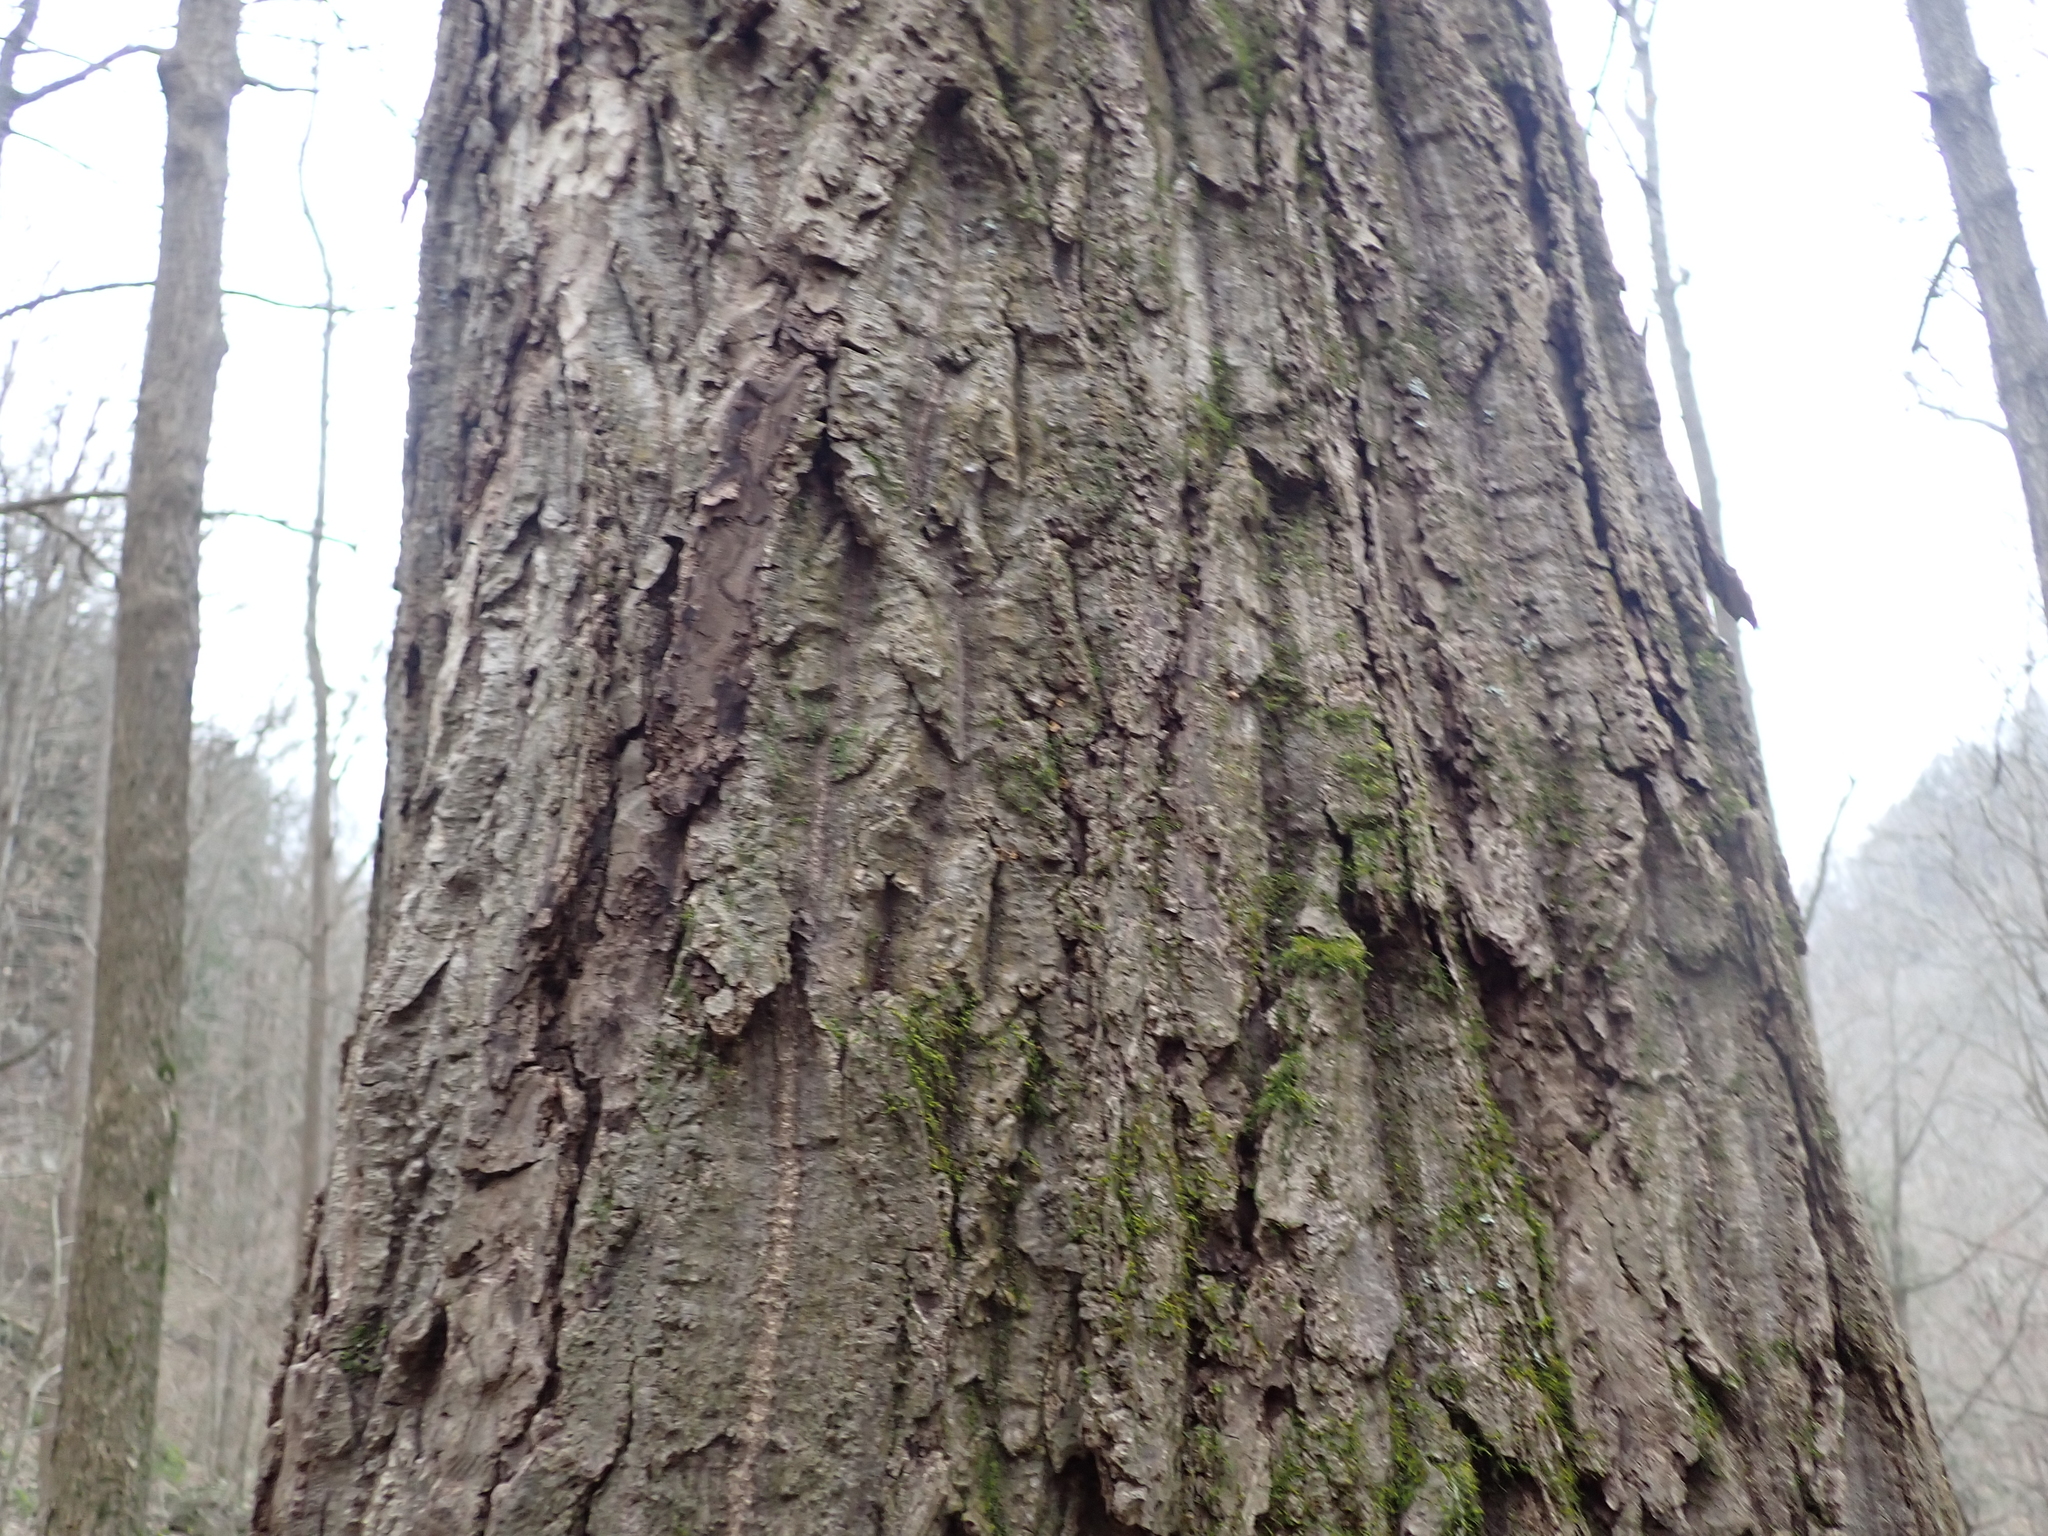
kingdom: Plantae
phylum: Tracheophyta
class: Magnoliopsida
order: Fagales
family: Juglandaceae
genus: Juglans
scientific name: Juglans cinerea
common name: Butternut
